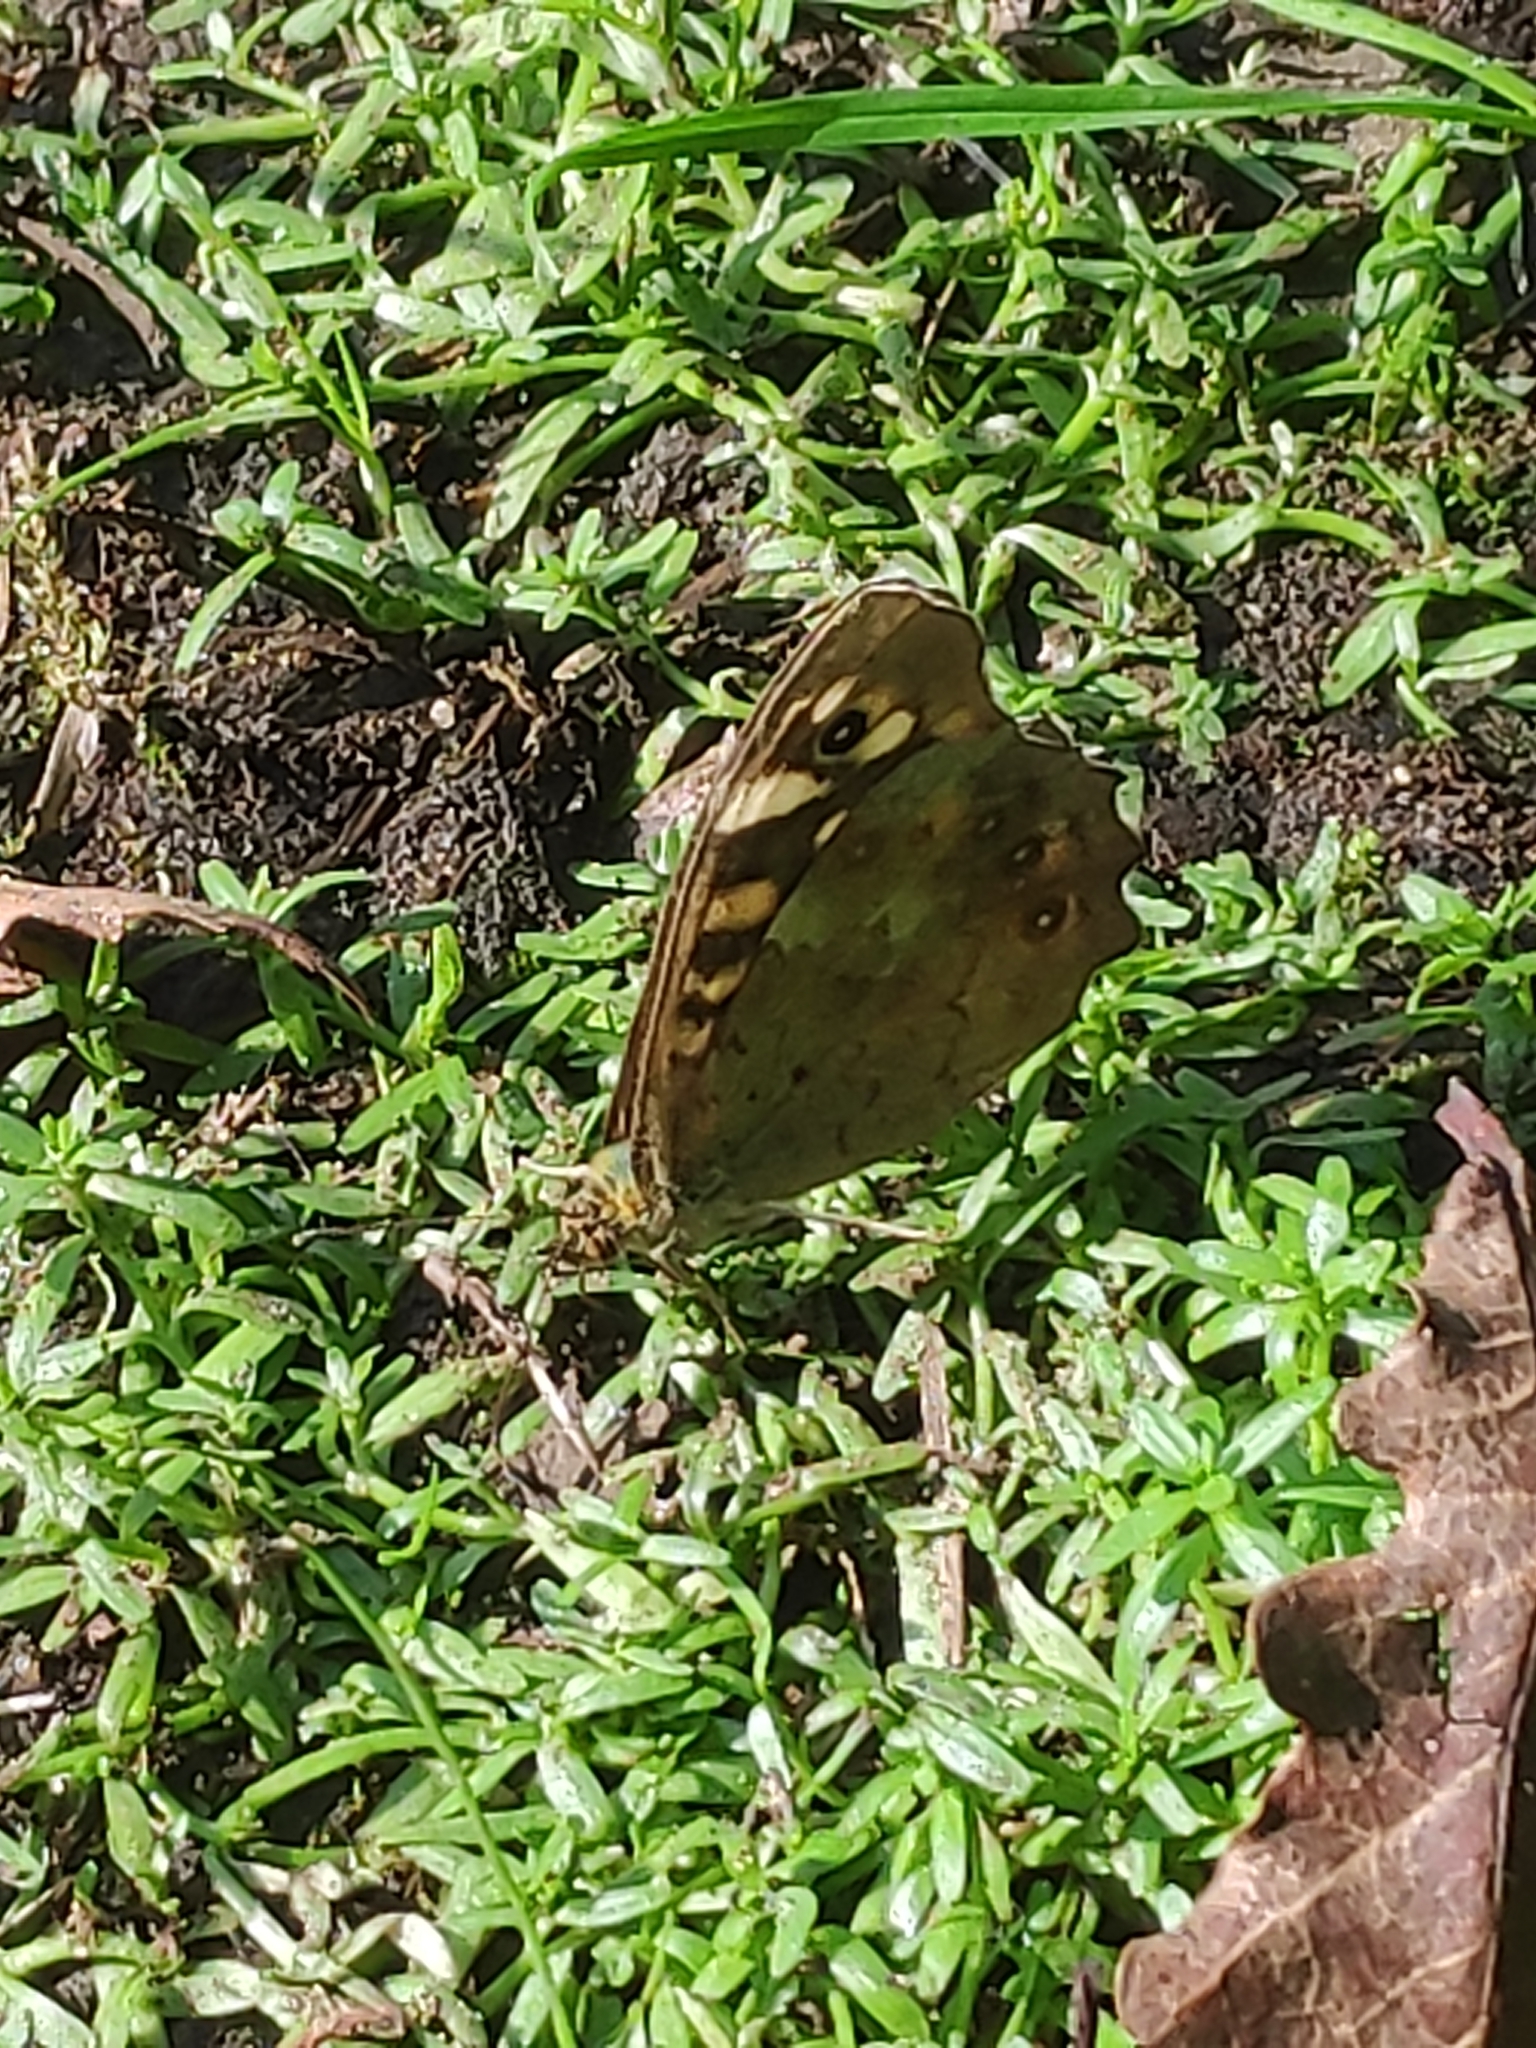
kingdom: Animalia
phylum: Arthropoda
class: Insecta
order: Lepidoptera
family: Nymphalidae
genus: Pararge
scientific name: Pararge aegeria
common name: Speckled wood
